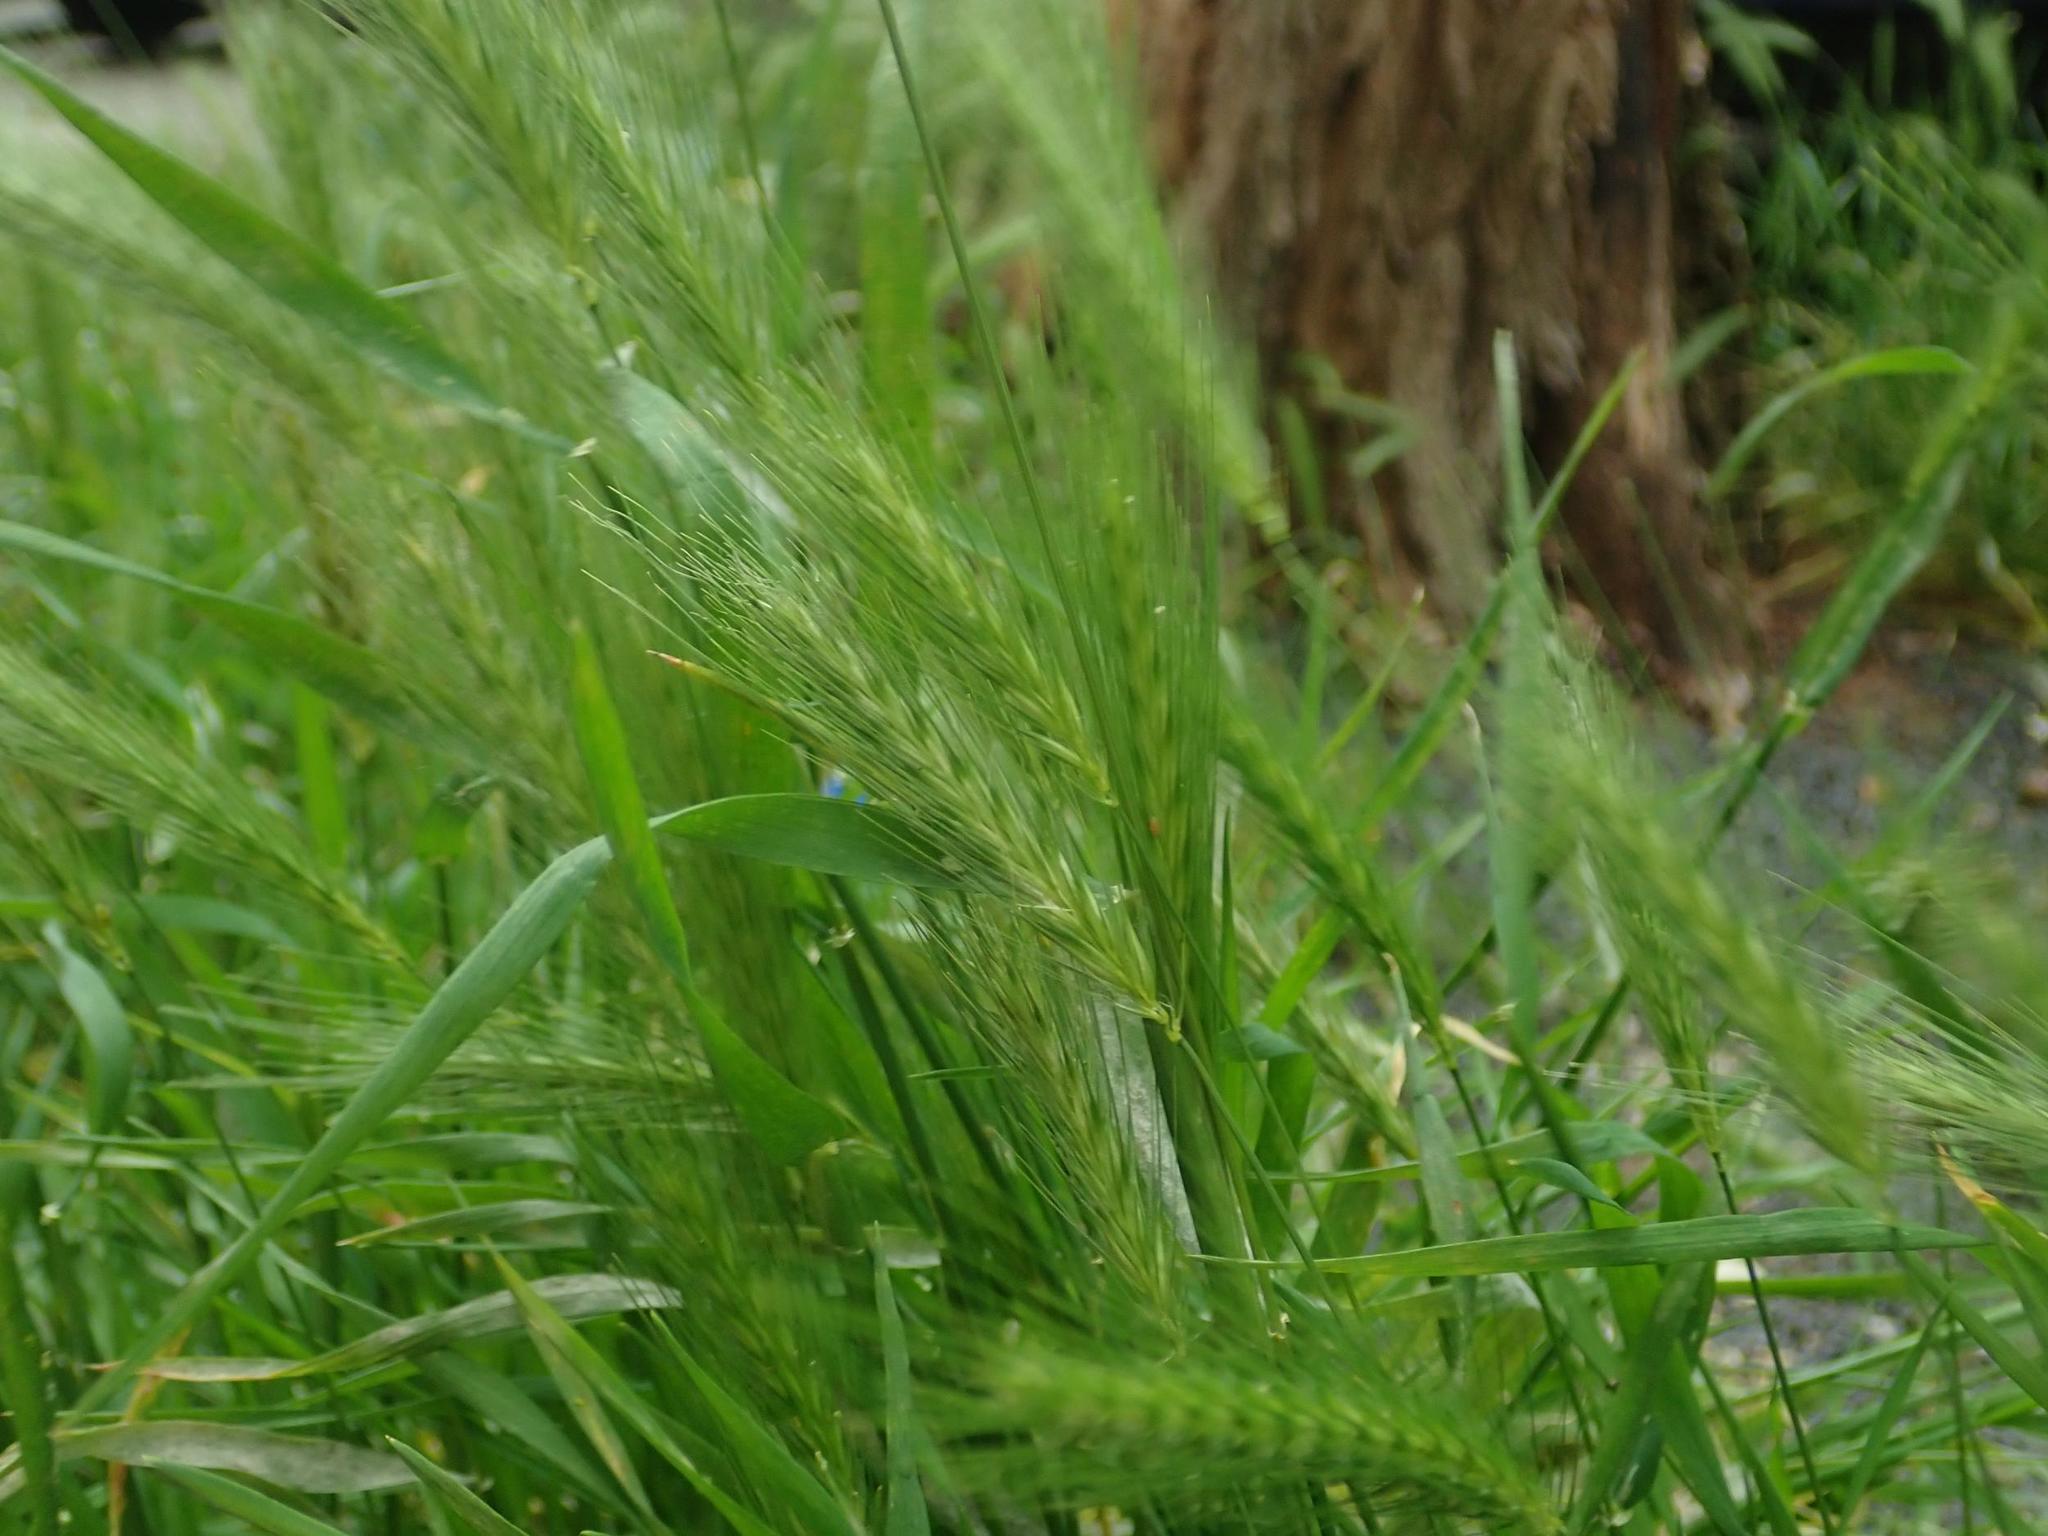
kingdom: Plantae
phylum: Tracheophyta
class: Liliopsida
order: Poales
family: Poaceae
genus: Hordeum
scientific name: Hordeum murinum
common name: Wall barley
